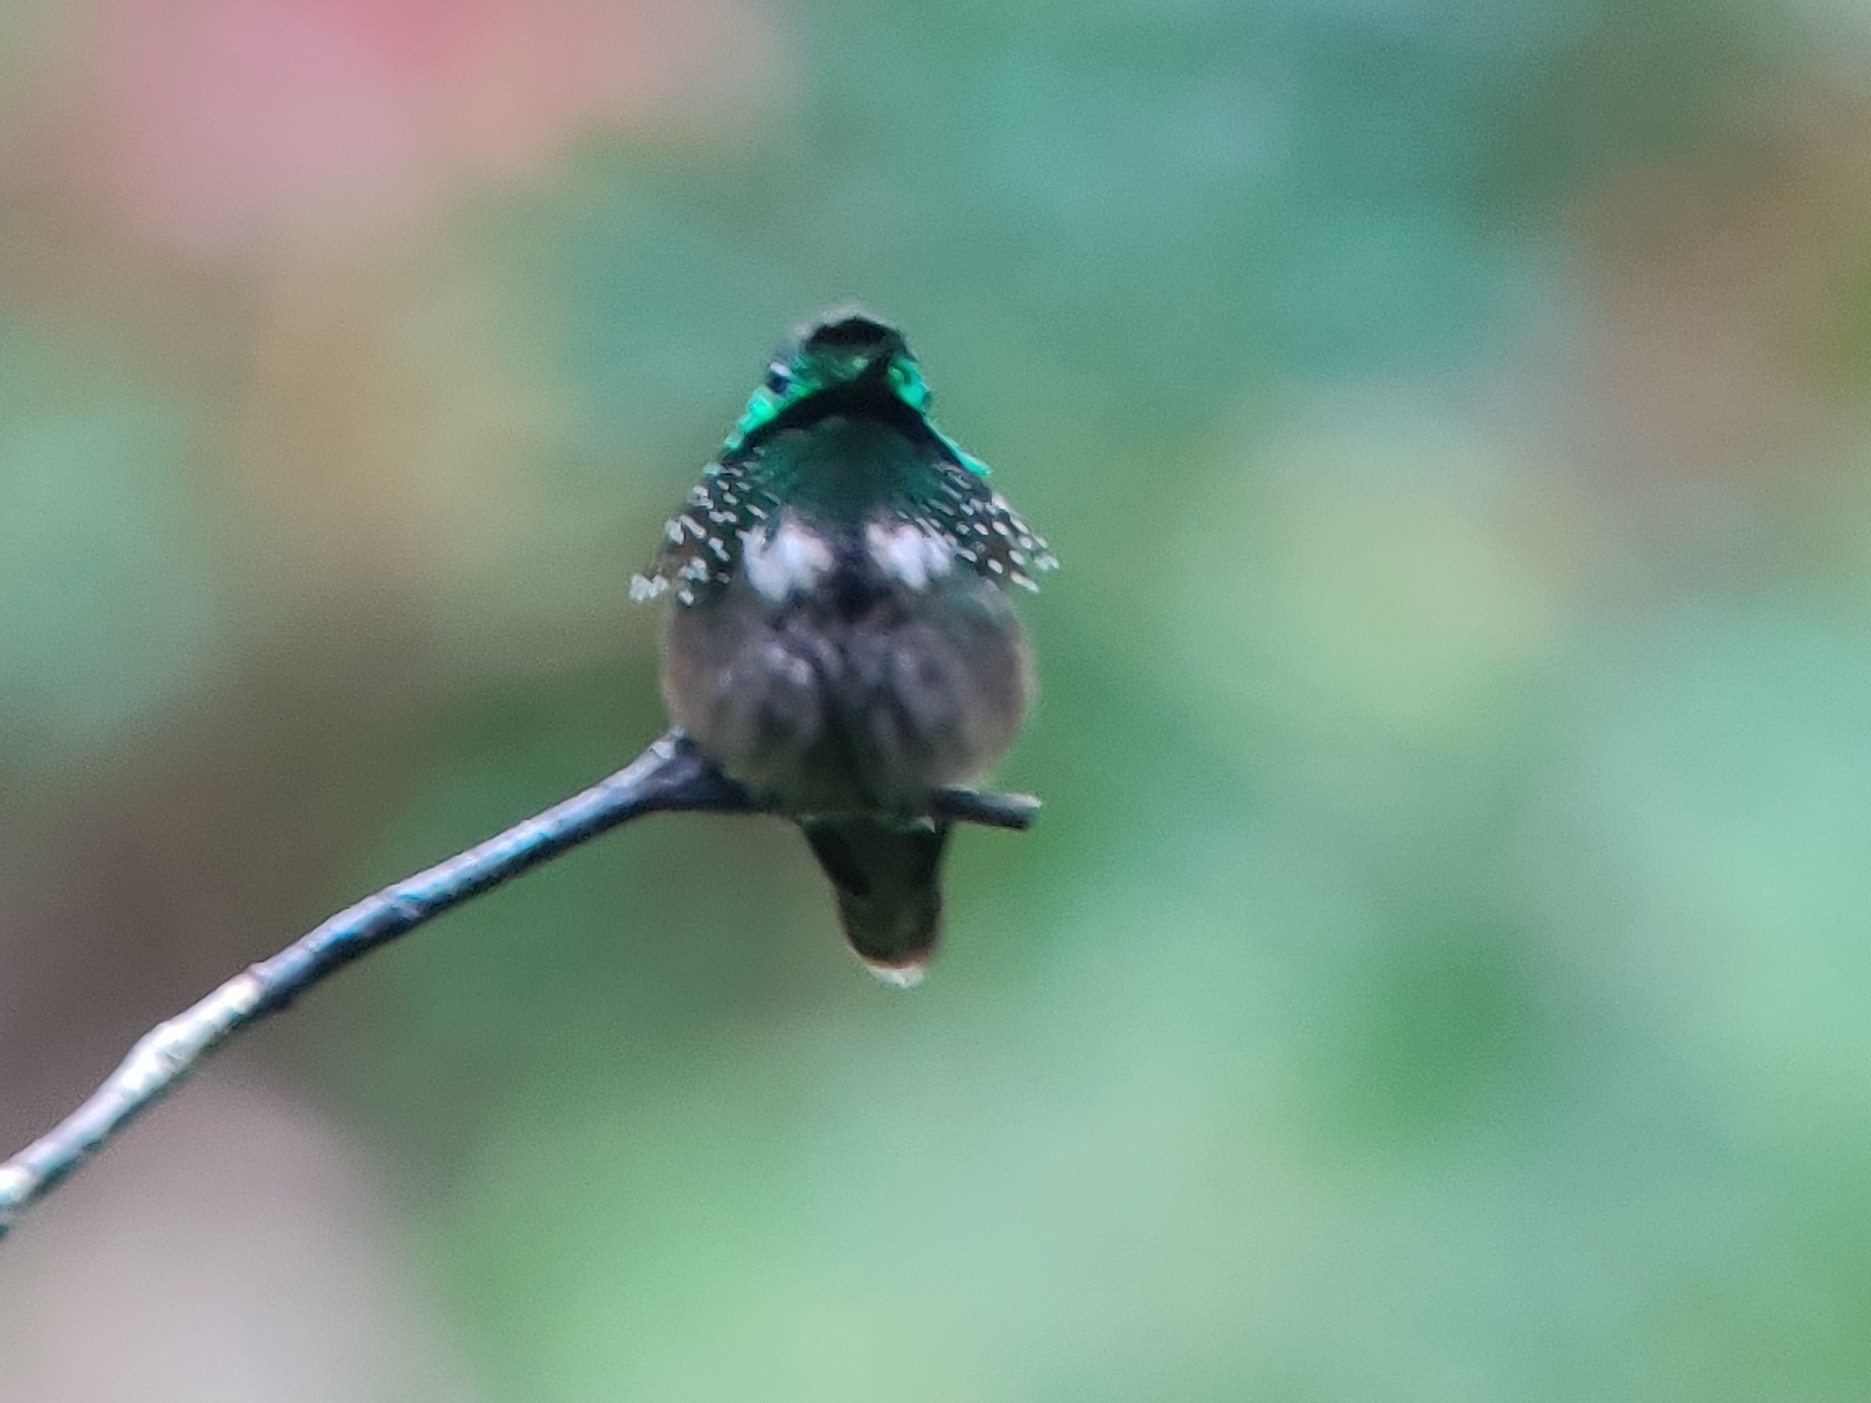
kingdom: Animalia
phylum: Chordata
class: Aves
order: Apodiformes
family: Trochilidae
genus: Lophornis
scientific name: Lophornis chalybeus
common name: Festive coquette
